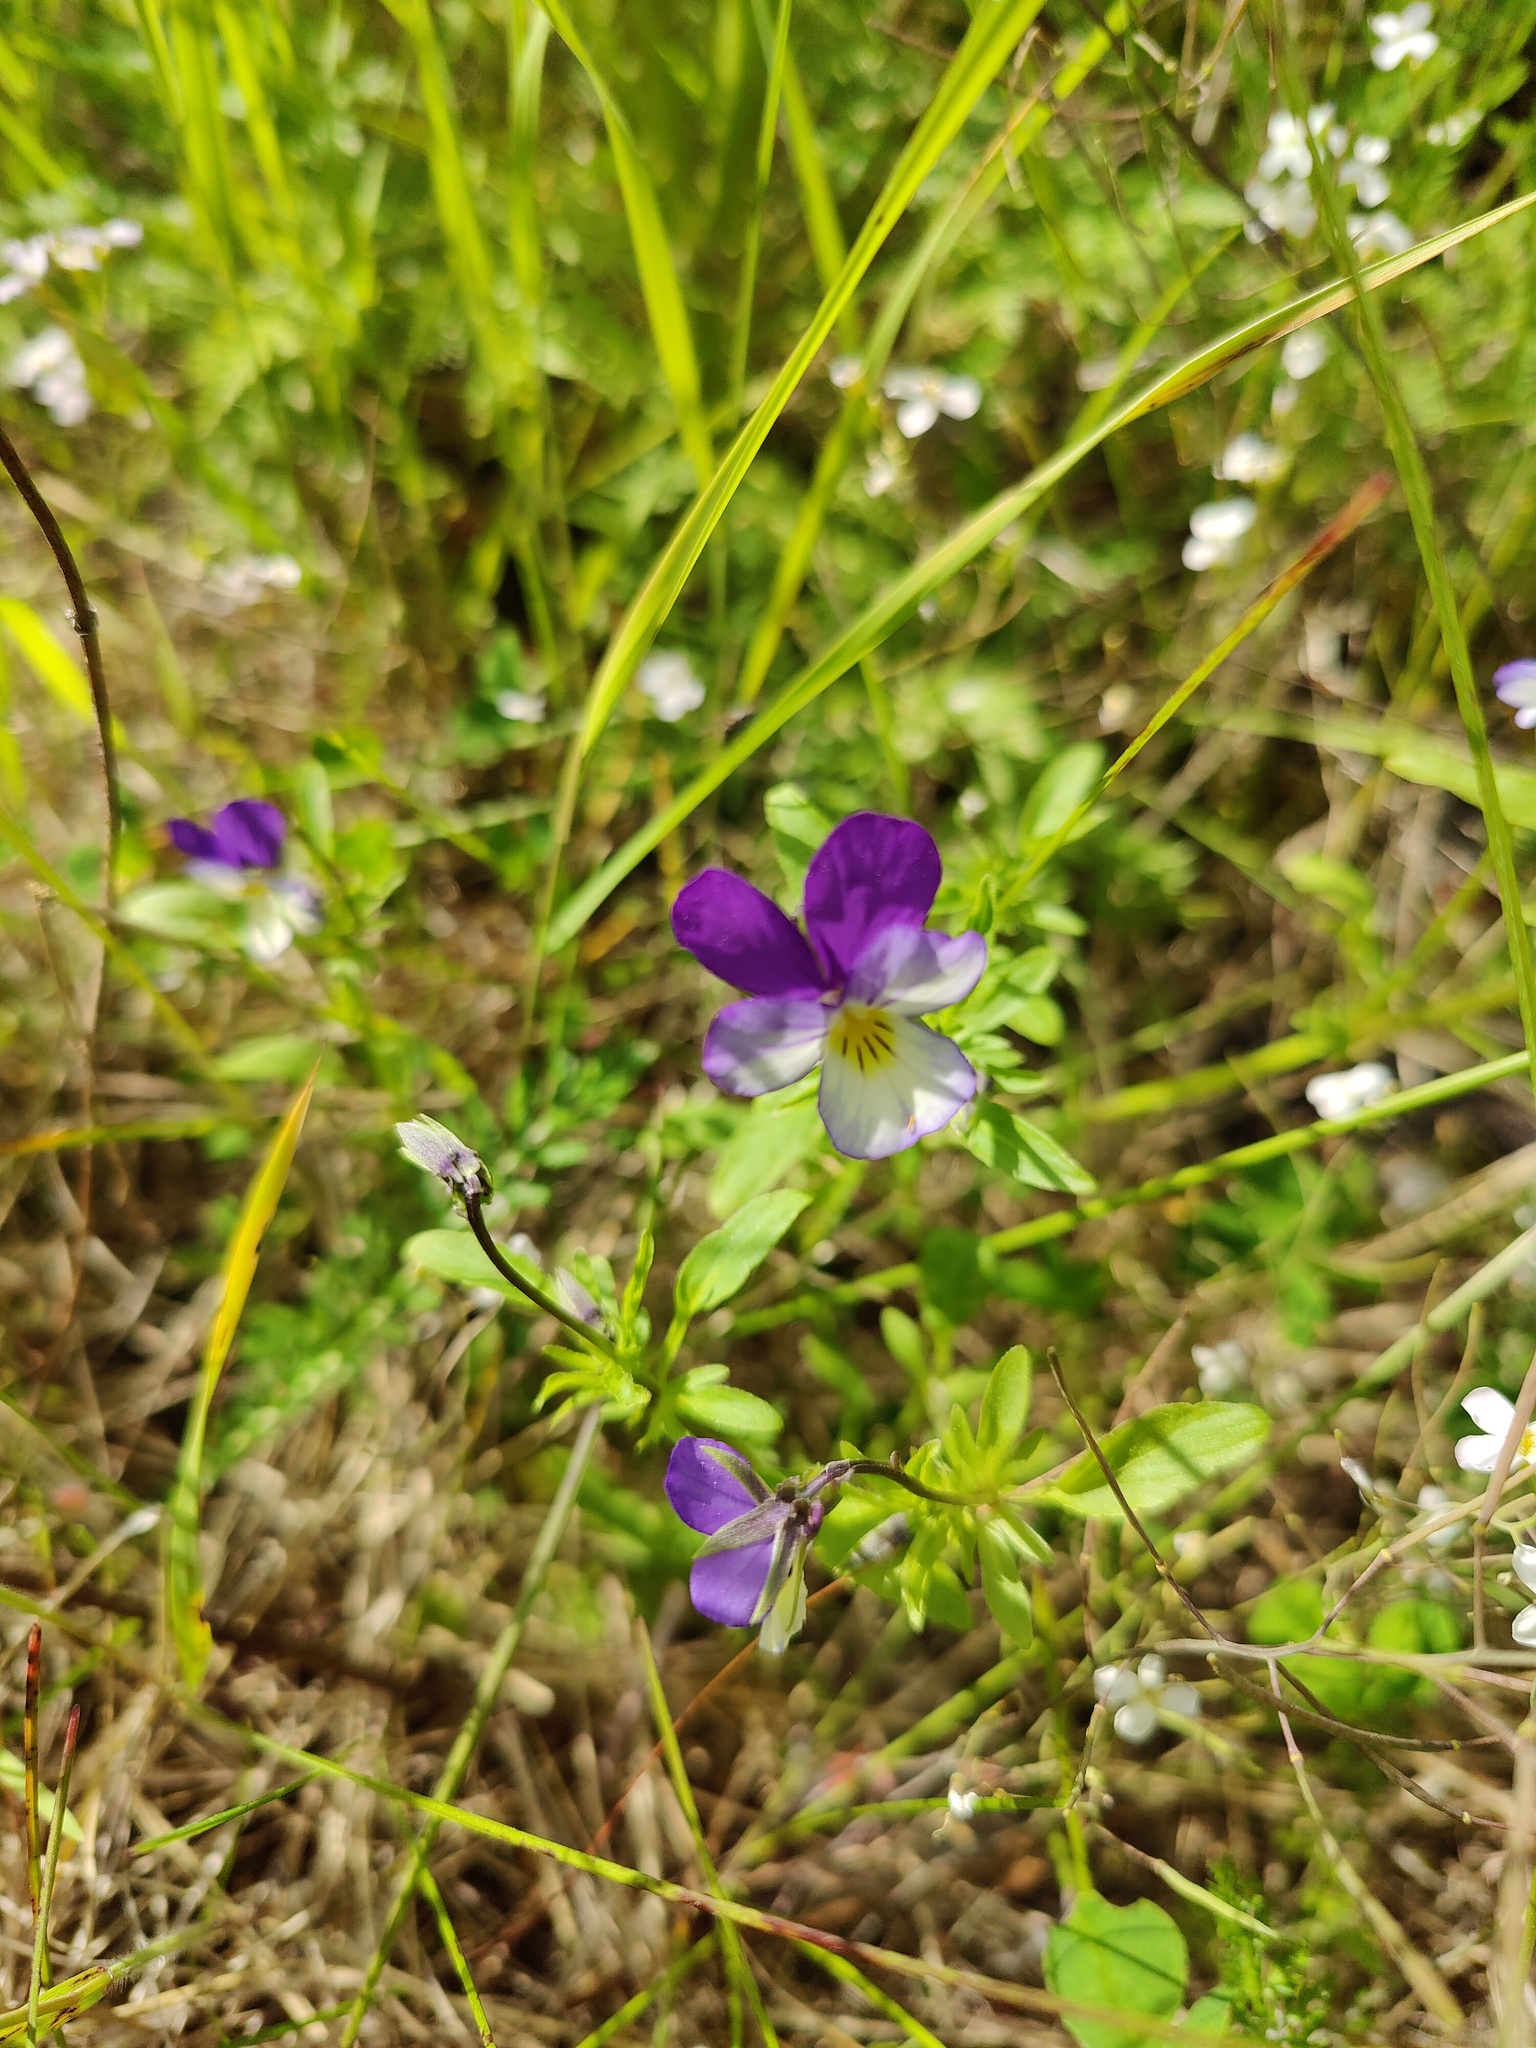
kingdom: Plantae
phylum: Tracheophyta
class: Magnoliopsida
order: Malpighiales
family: Violaceae
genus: Viola
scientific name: Viola tricolor
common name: Pansy
